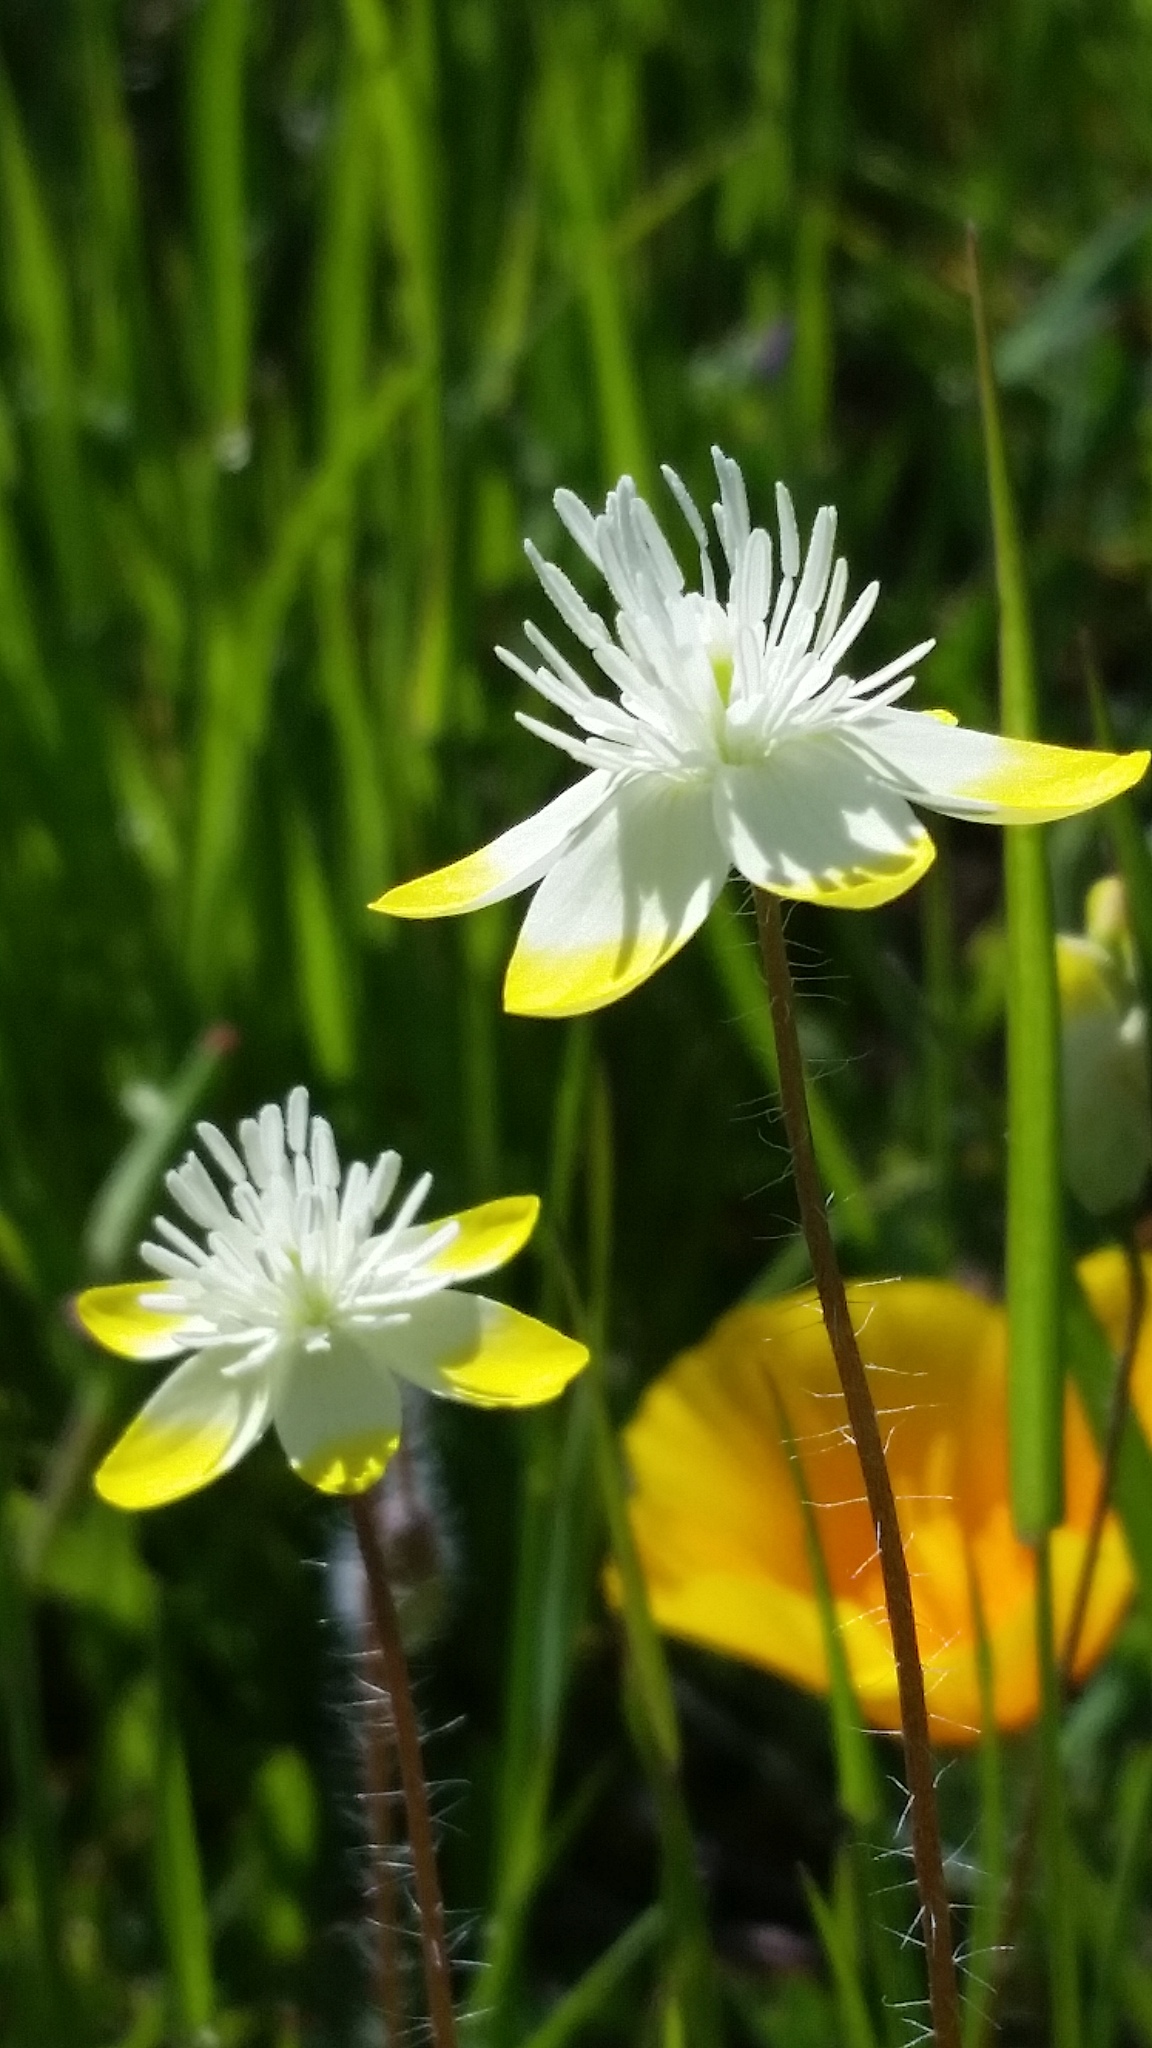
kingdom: Plantae
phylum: Tracheophyta
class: Magnoliopsida
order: Ranunculales
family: Papaveraceae
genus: Platystemon
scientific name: Platystemon californicus
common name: Cream-cups
